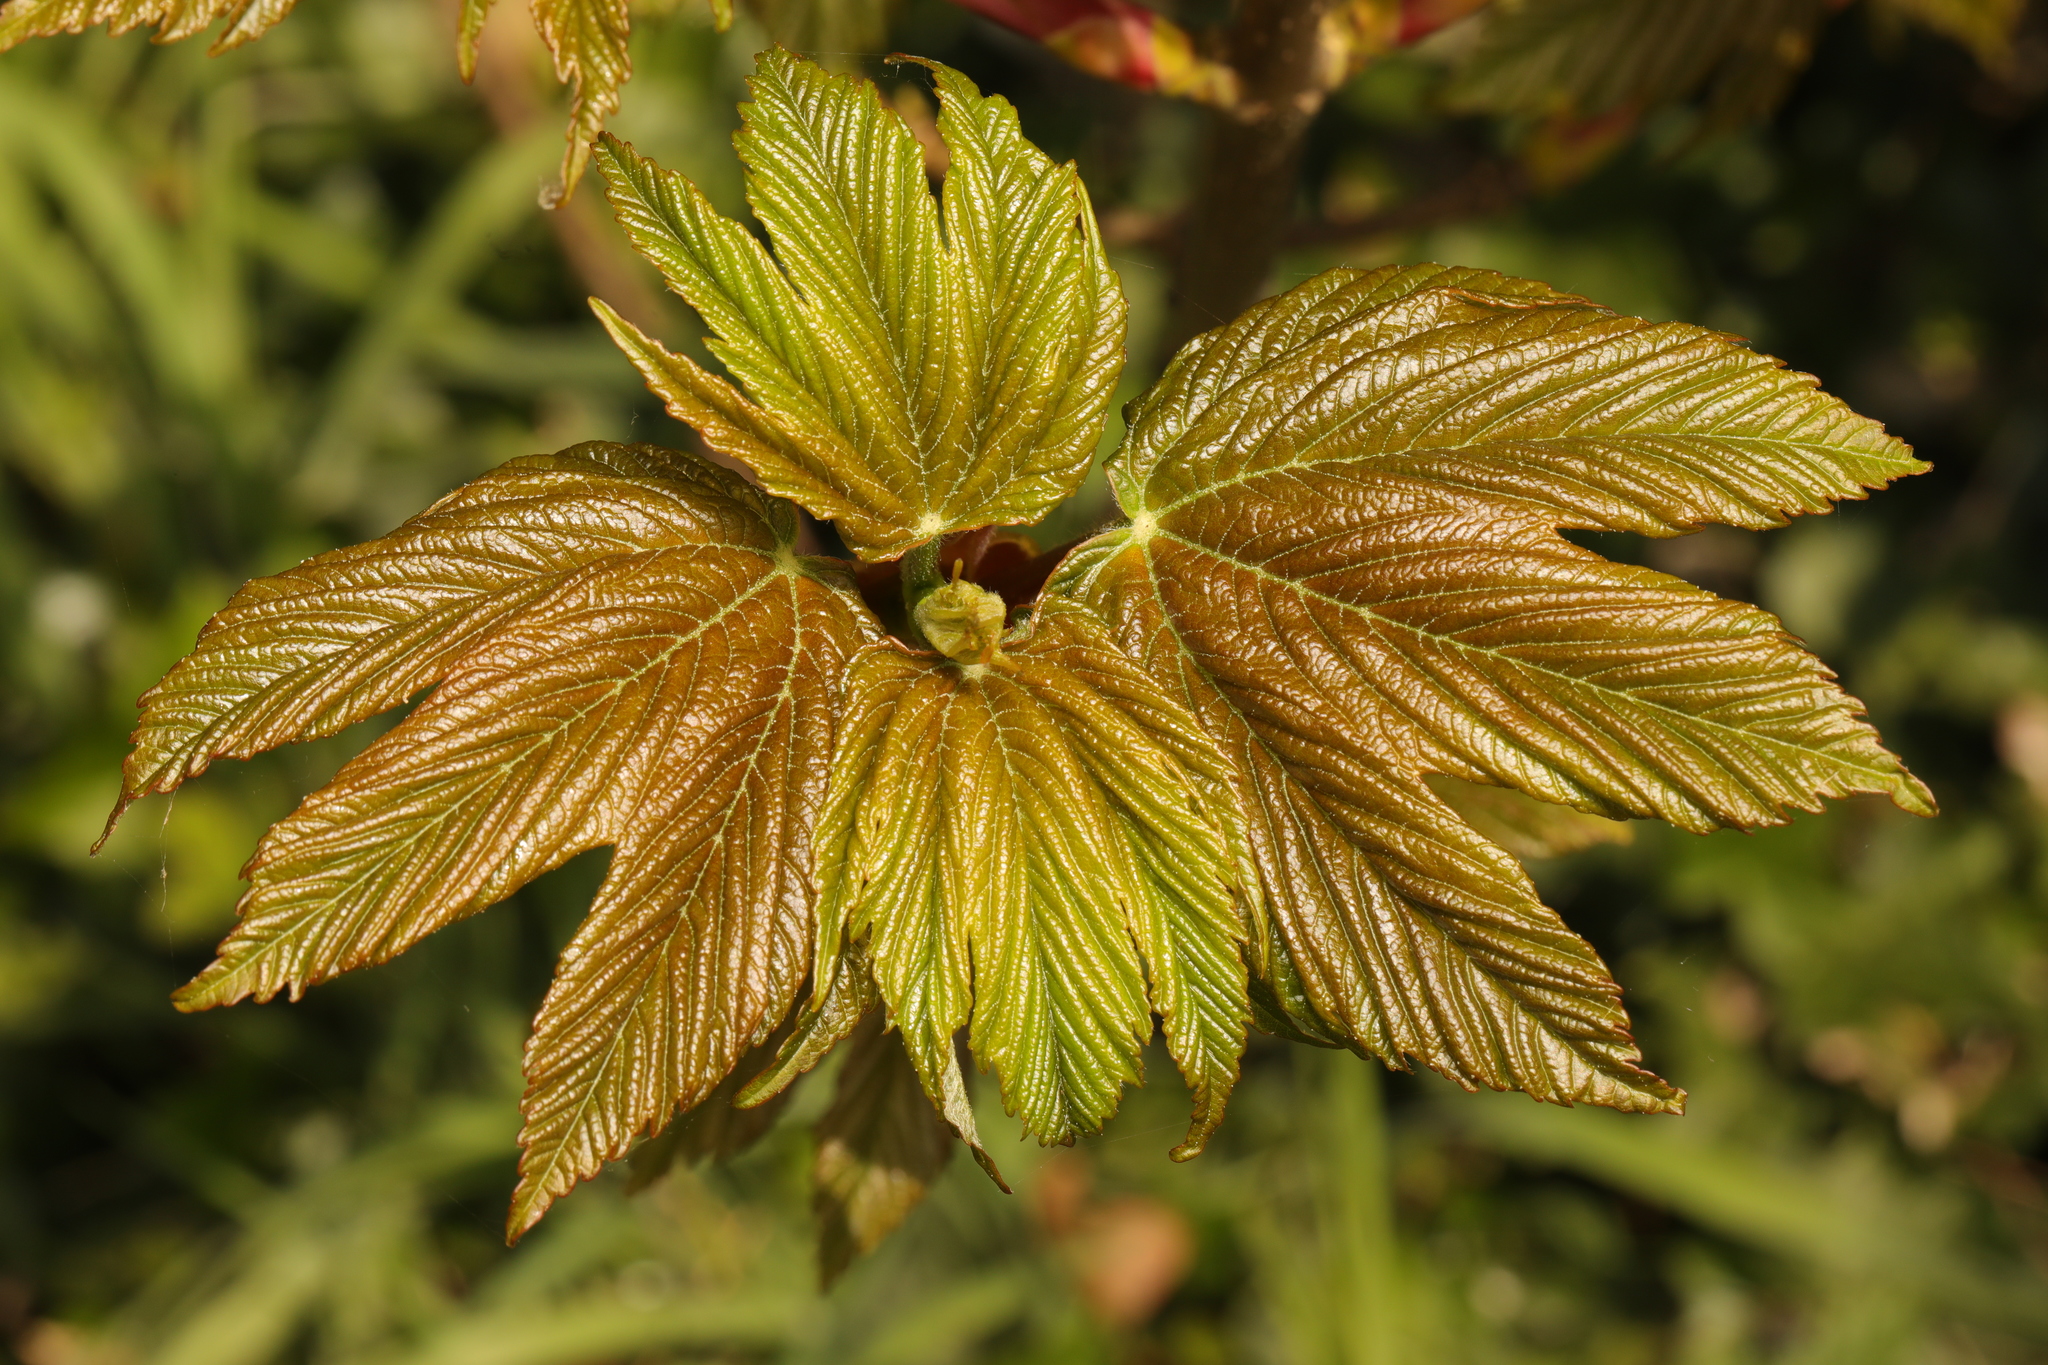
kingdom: Plantae
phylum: Tracheophyta
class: Magnoliopsida
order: Sapindales
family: Sapindaceae
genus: Acer
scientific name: Acer pseudoplatanus
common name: Sycamore
